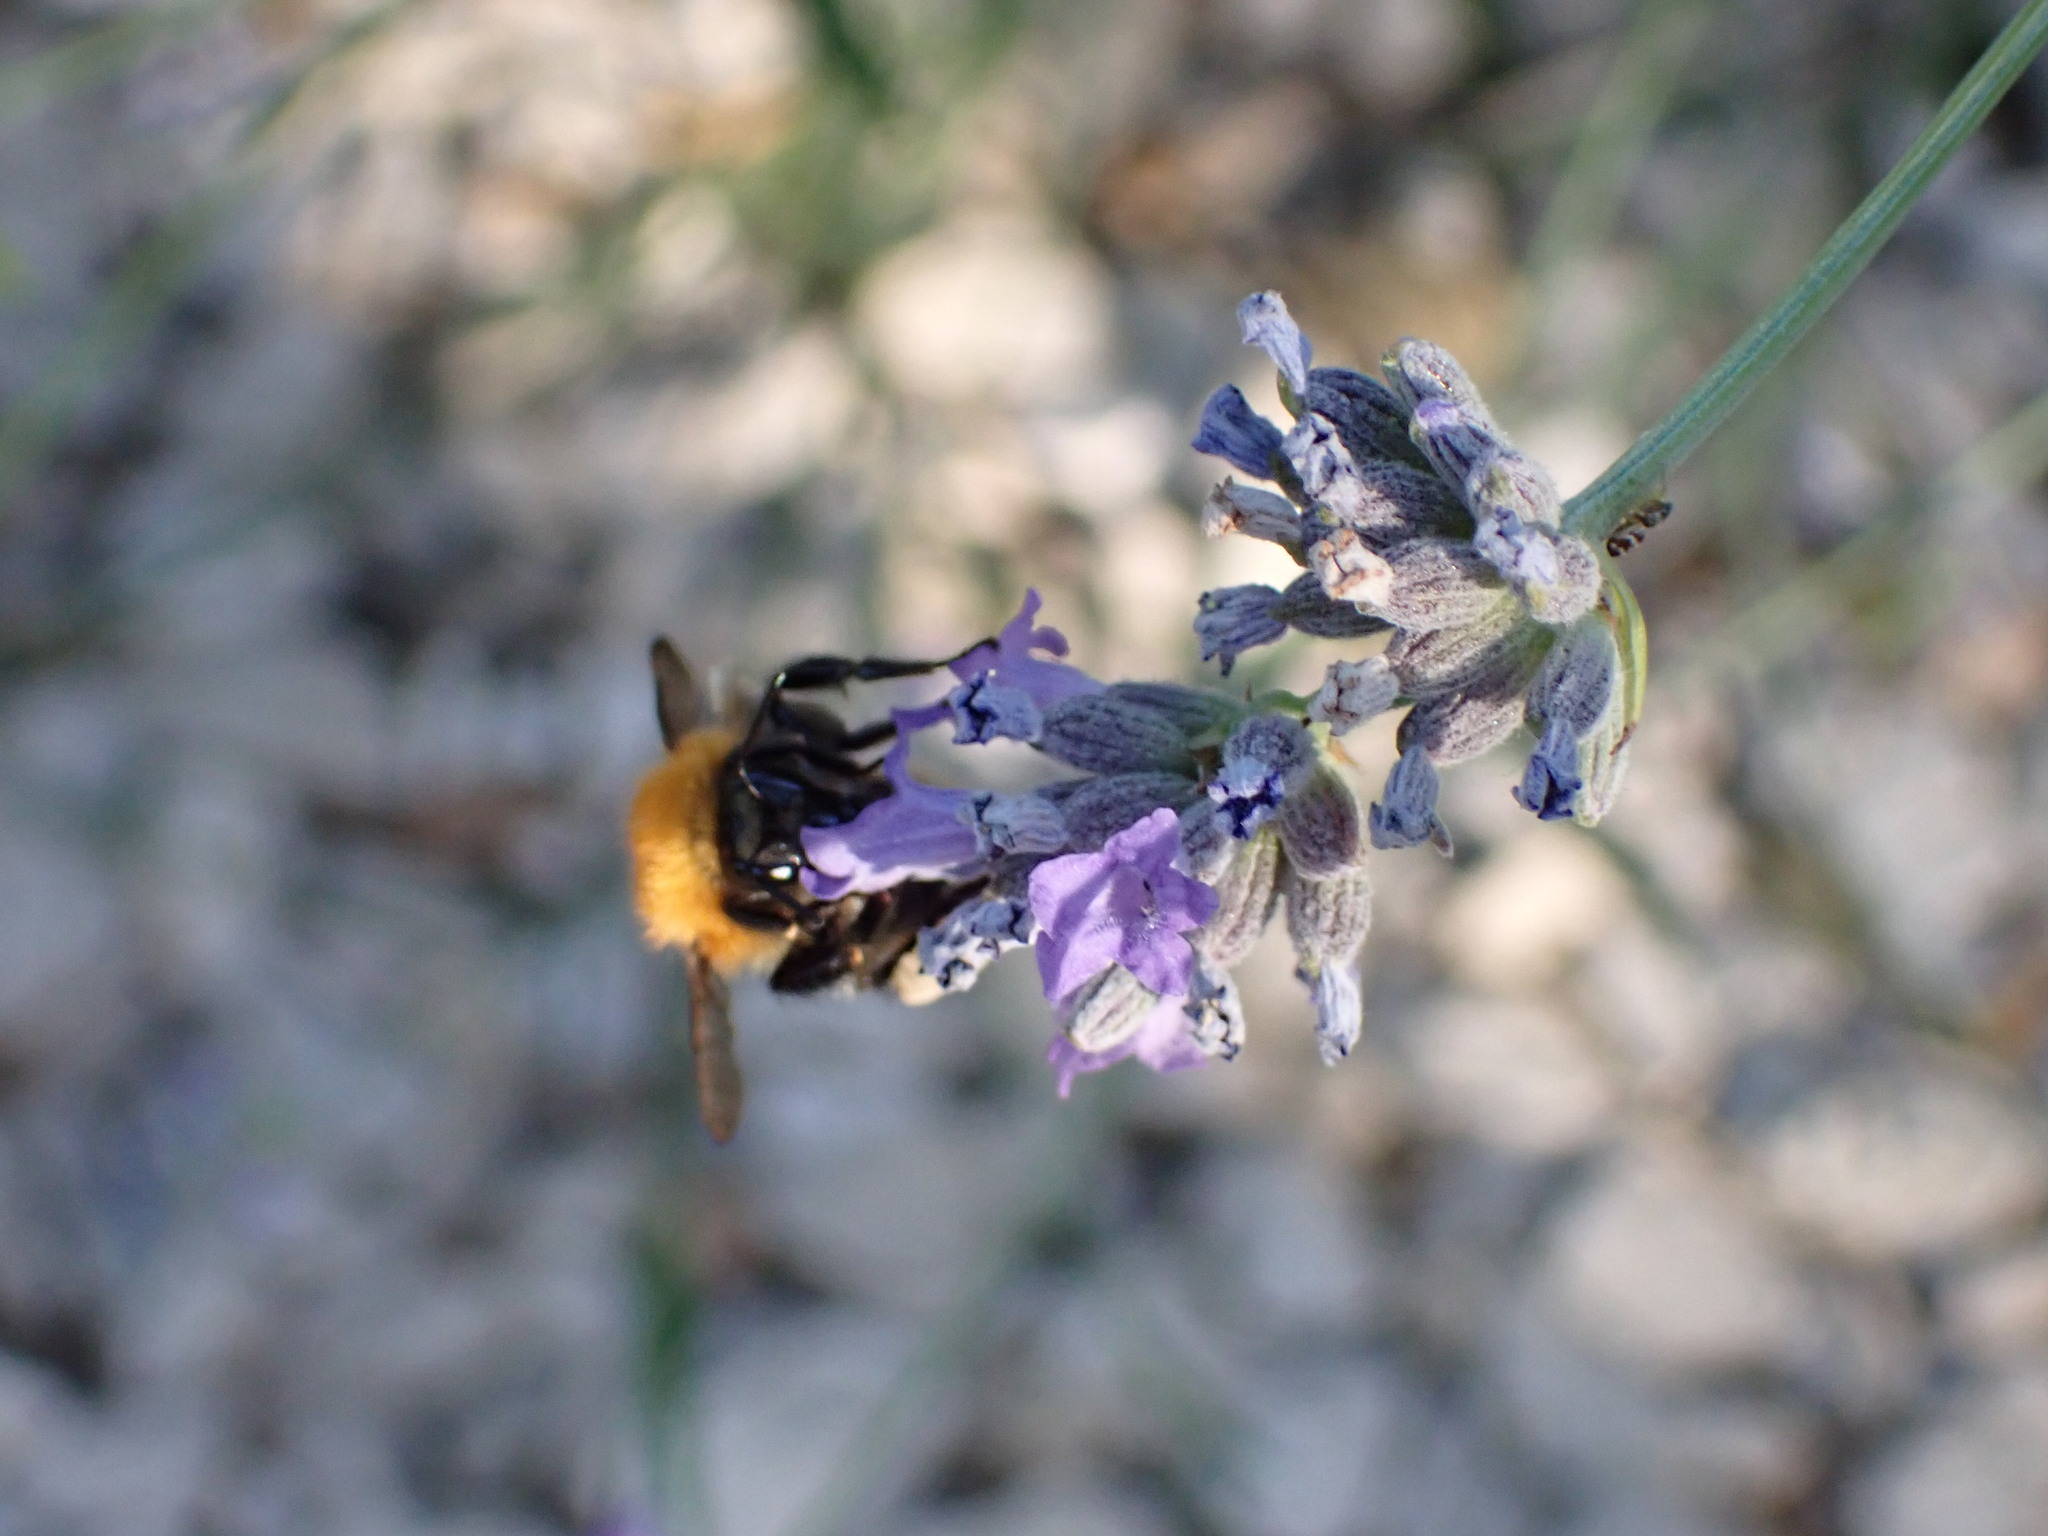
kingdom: Animalia
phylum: Arthropoda
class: Insecta
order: Hymenoptera
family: Apidae
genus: Bombus
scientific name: Bombus pascuorum
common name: Common carder bee
